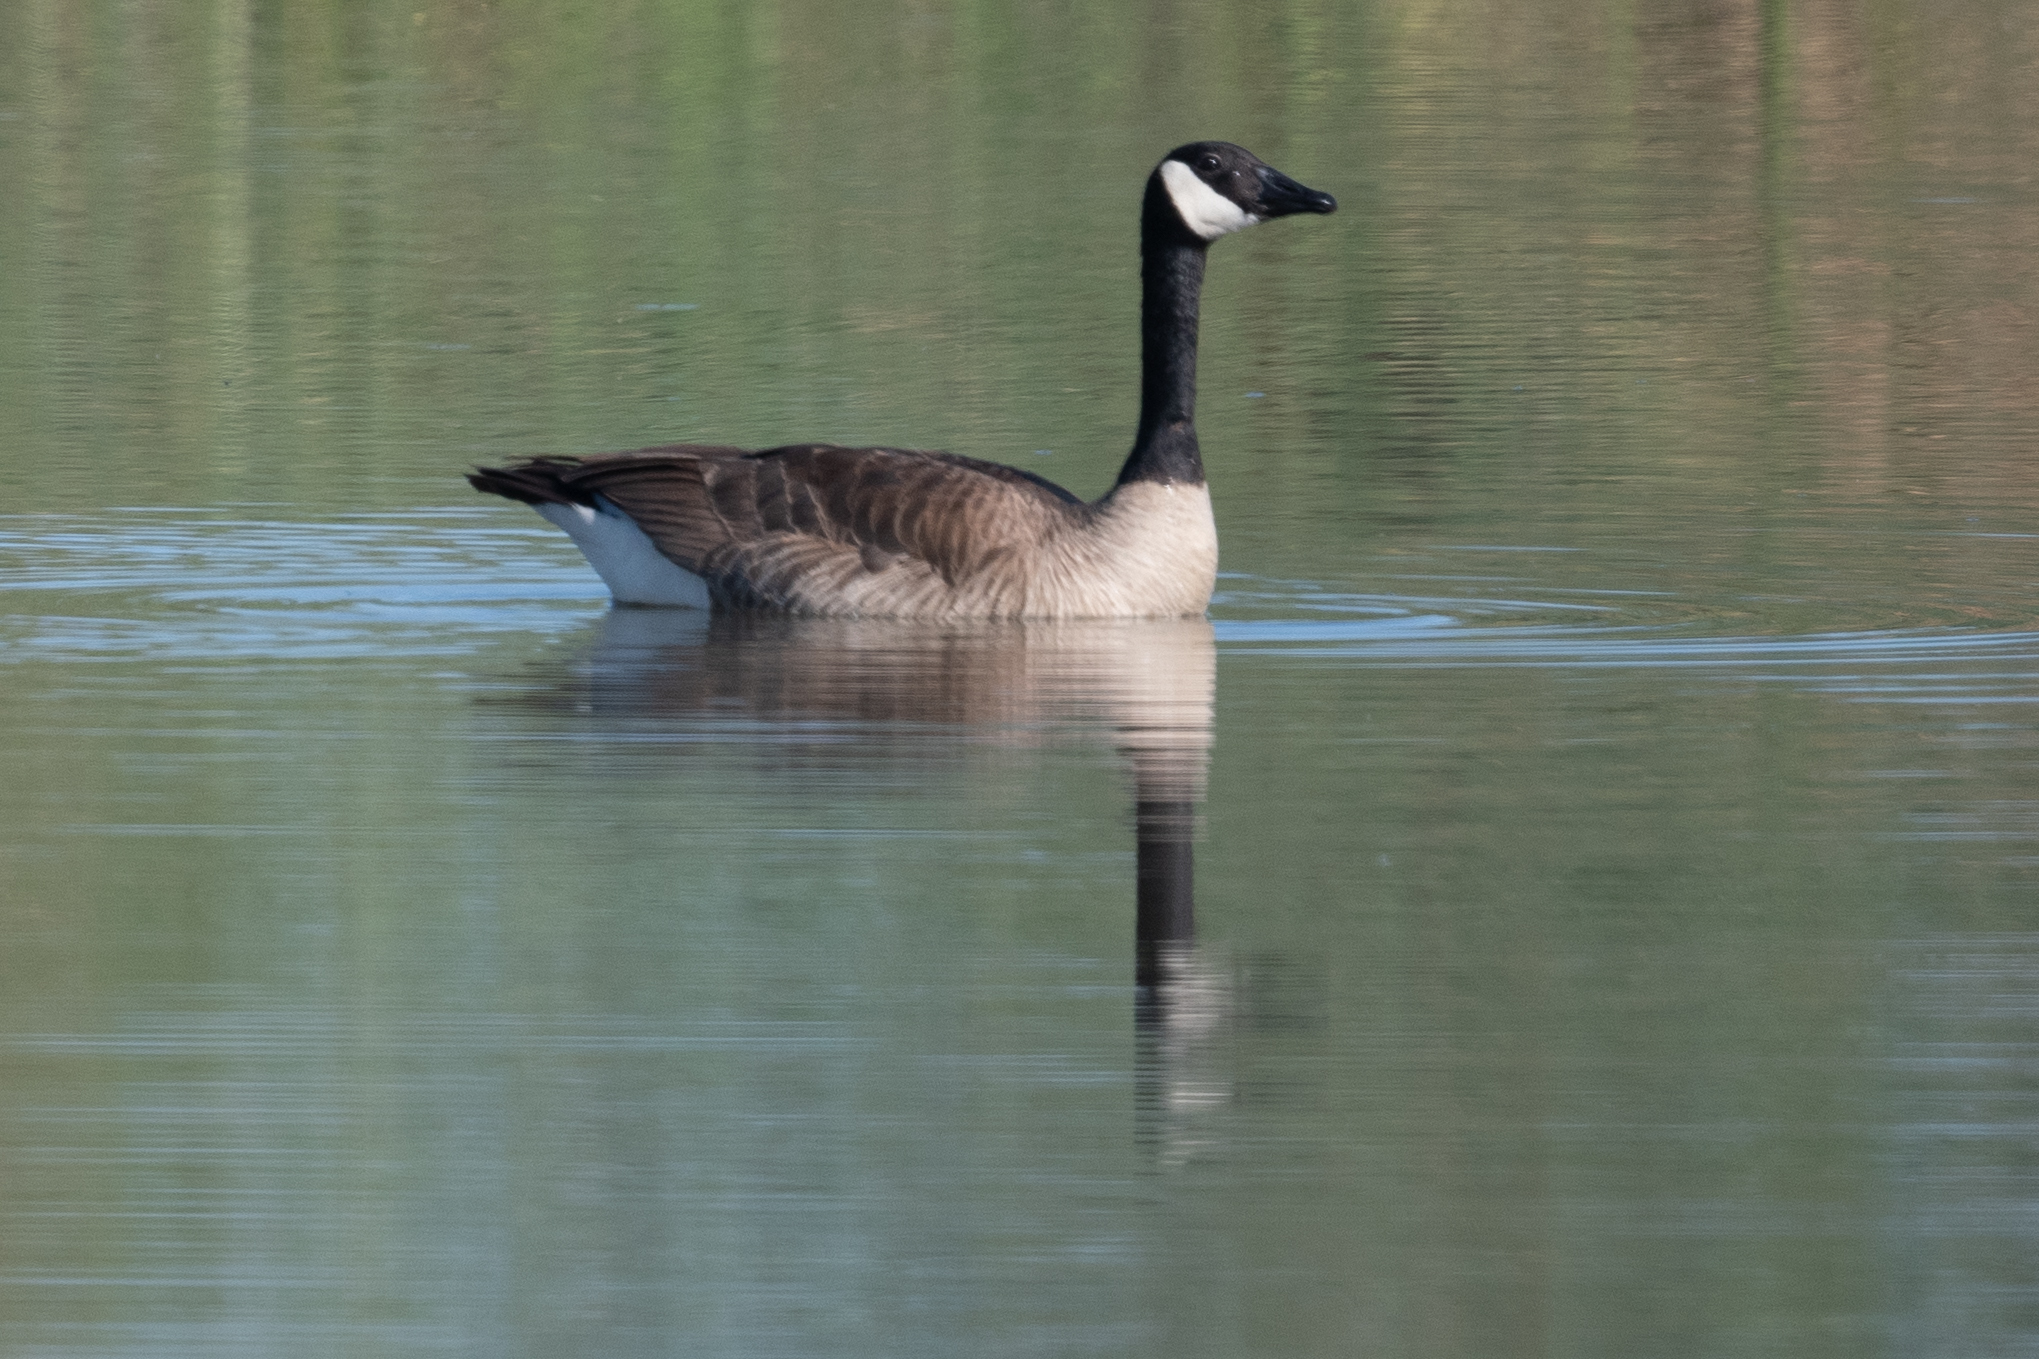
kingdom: Animalia
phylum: Chordata
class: Aves
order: Anseriformes
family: Anatidae
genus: Branta
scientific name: Branta canadensis
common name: Canada goose
